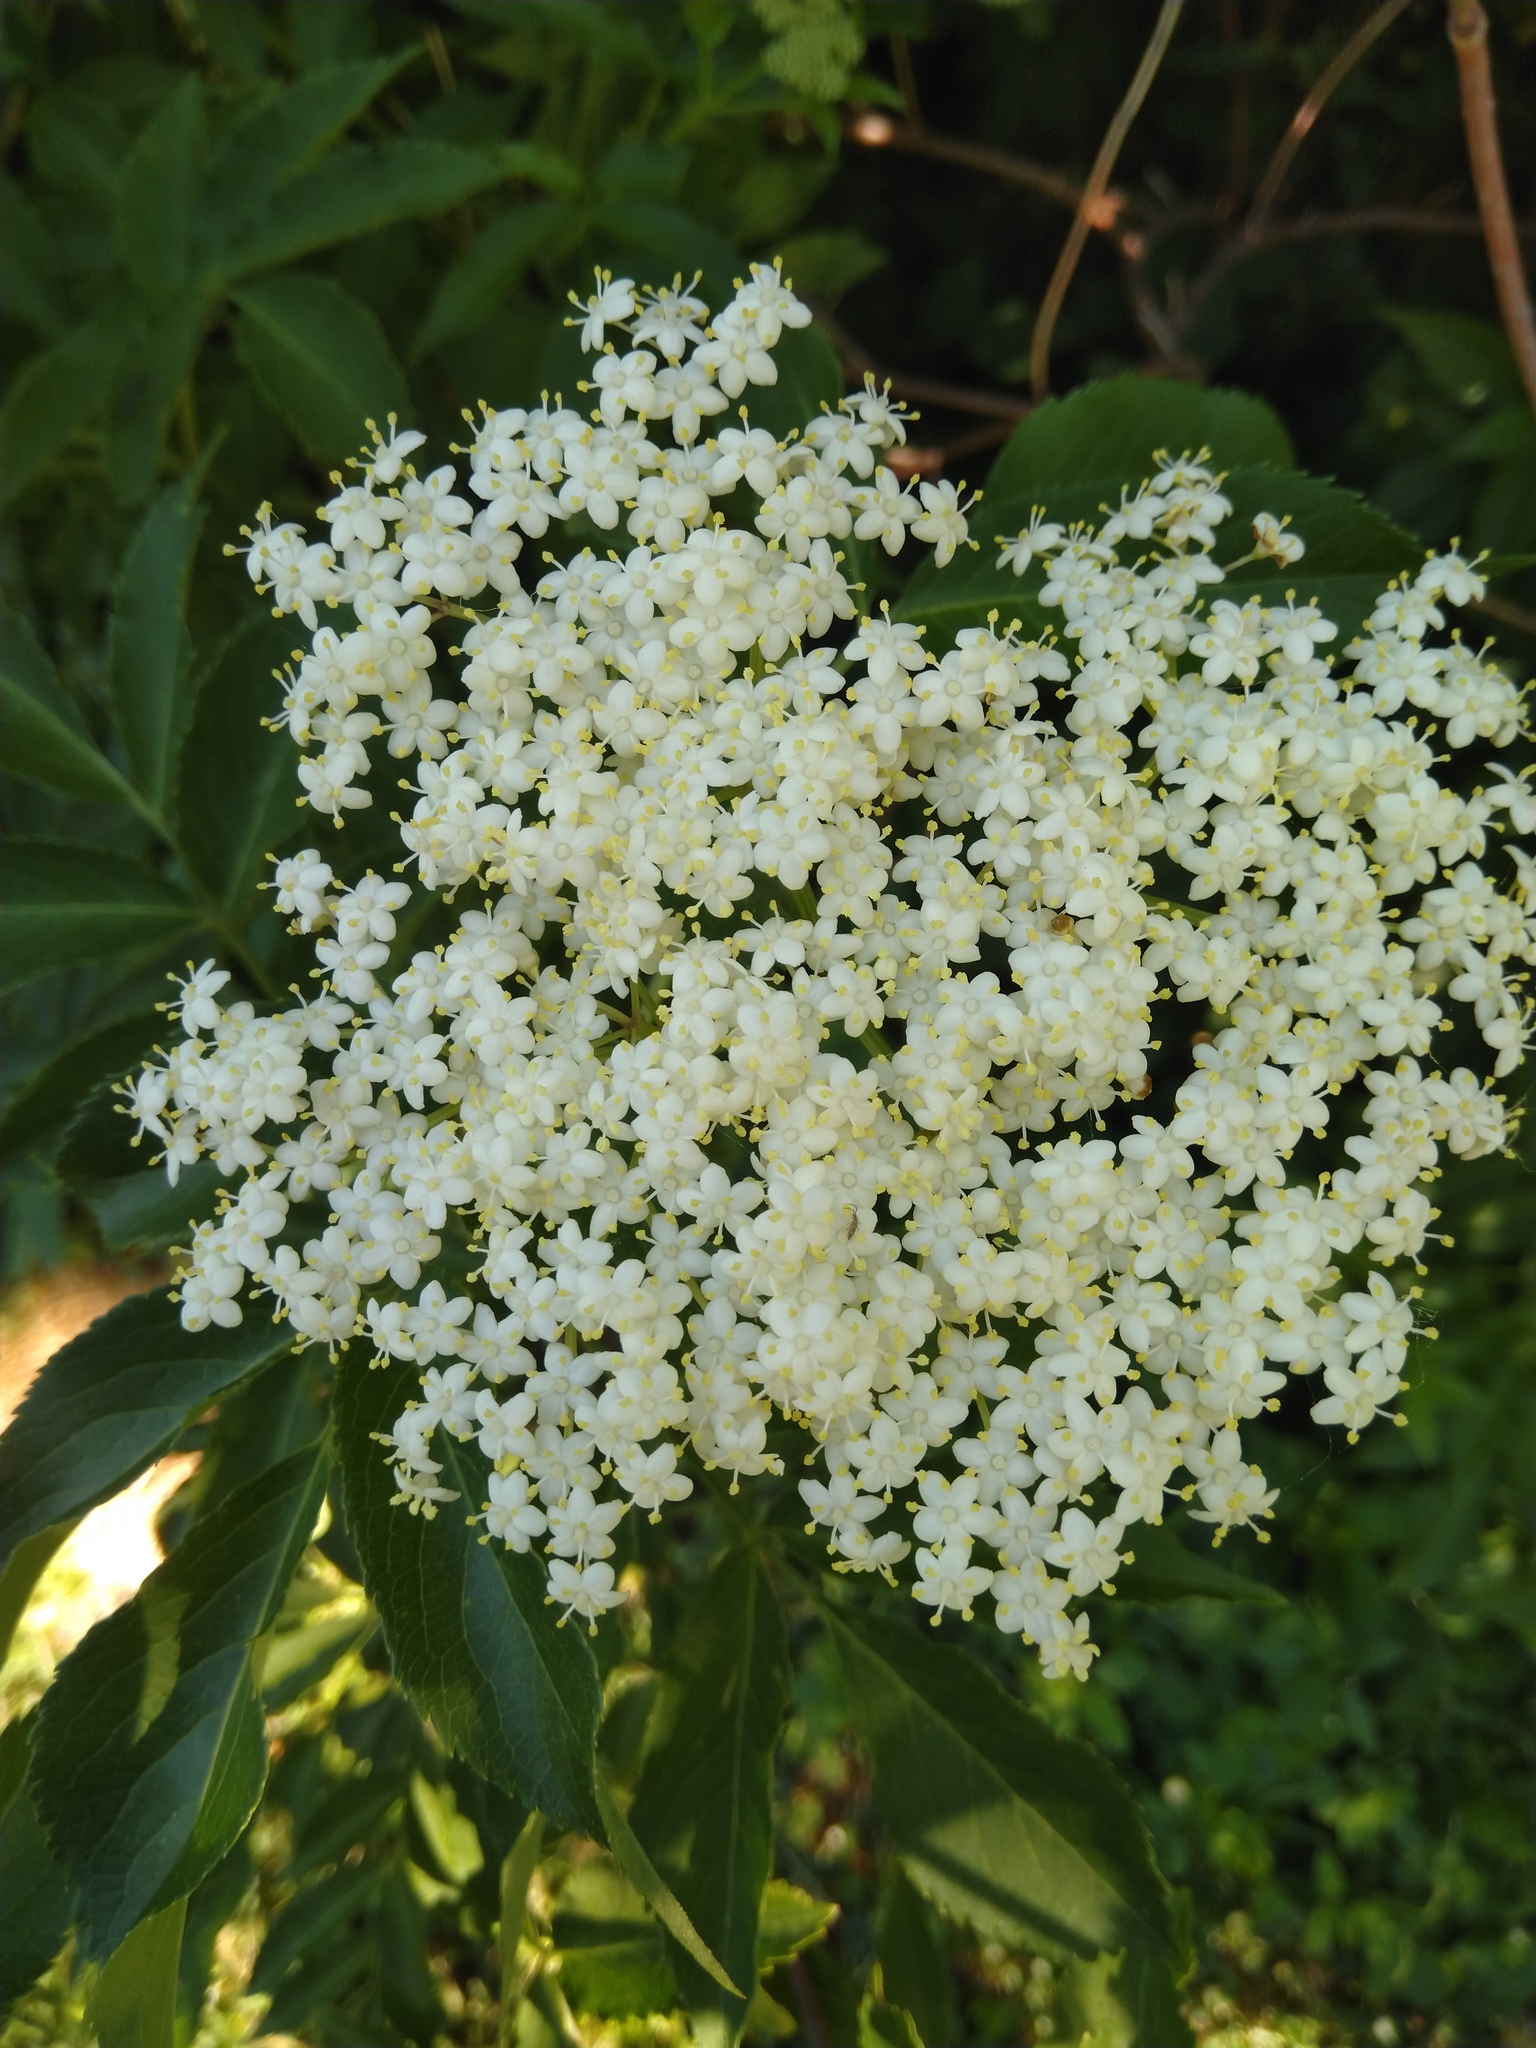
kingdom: Plantae
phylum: Tracheophyta
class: Magnoliopsida
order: Dipsacales
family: Viburnaceae
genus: Sambucus
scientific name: Sambucus canadensis
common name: American elder
